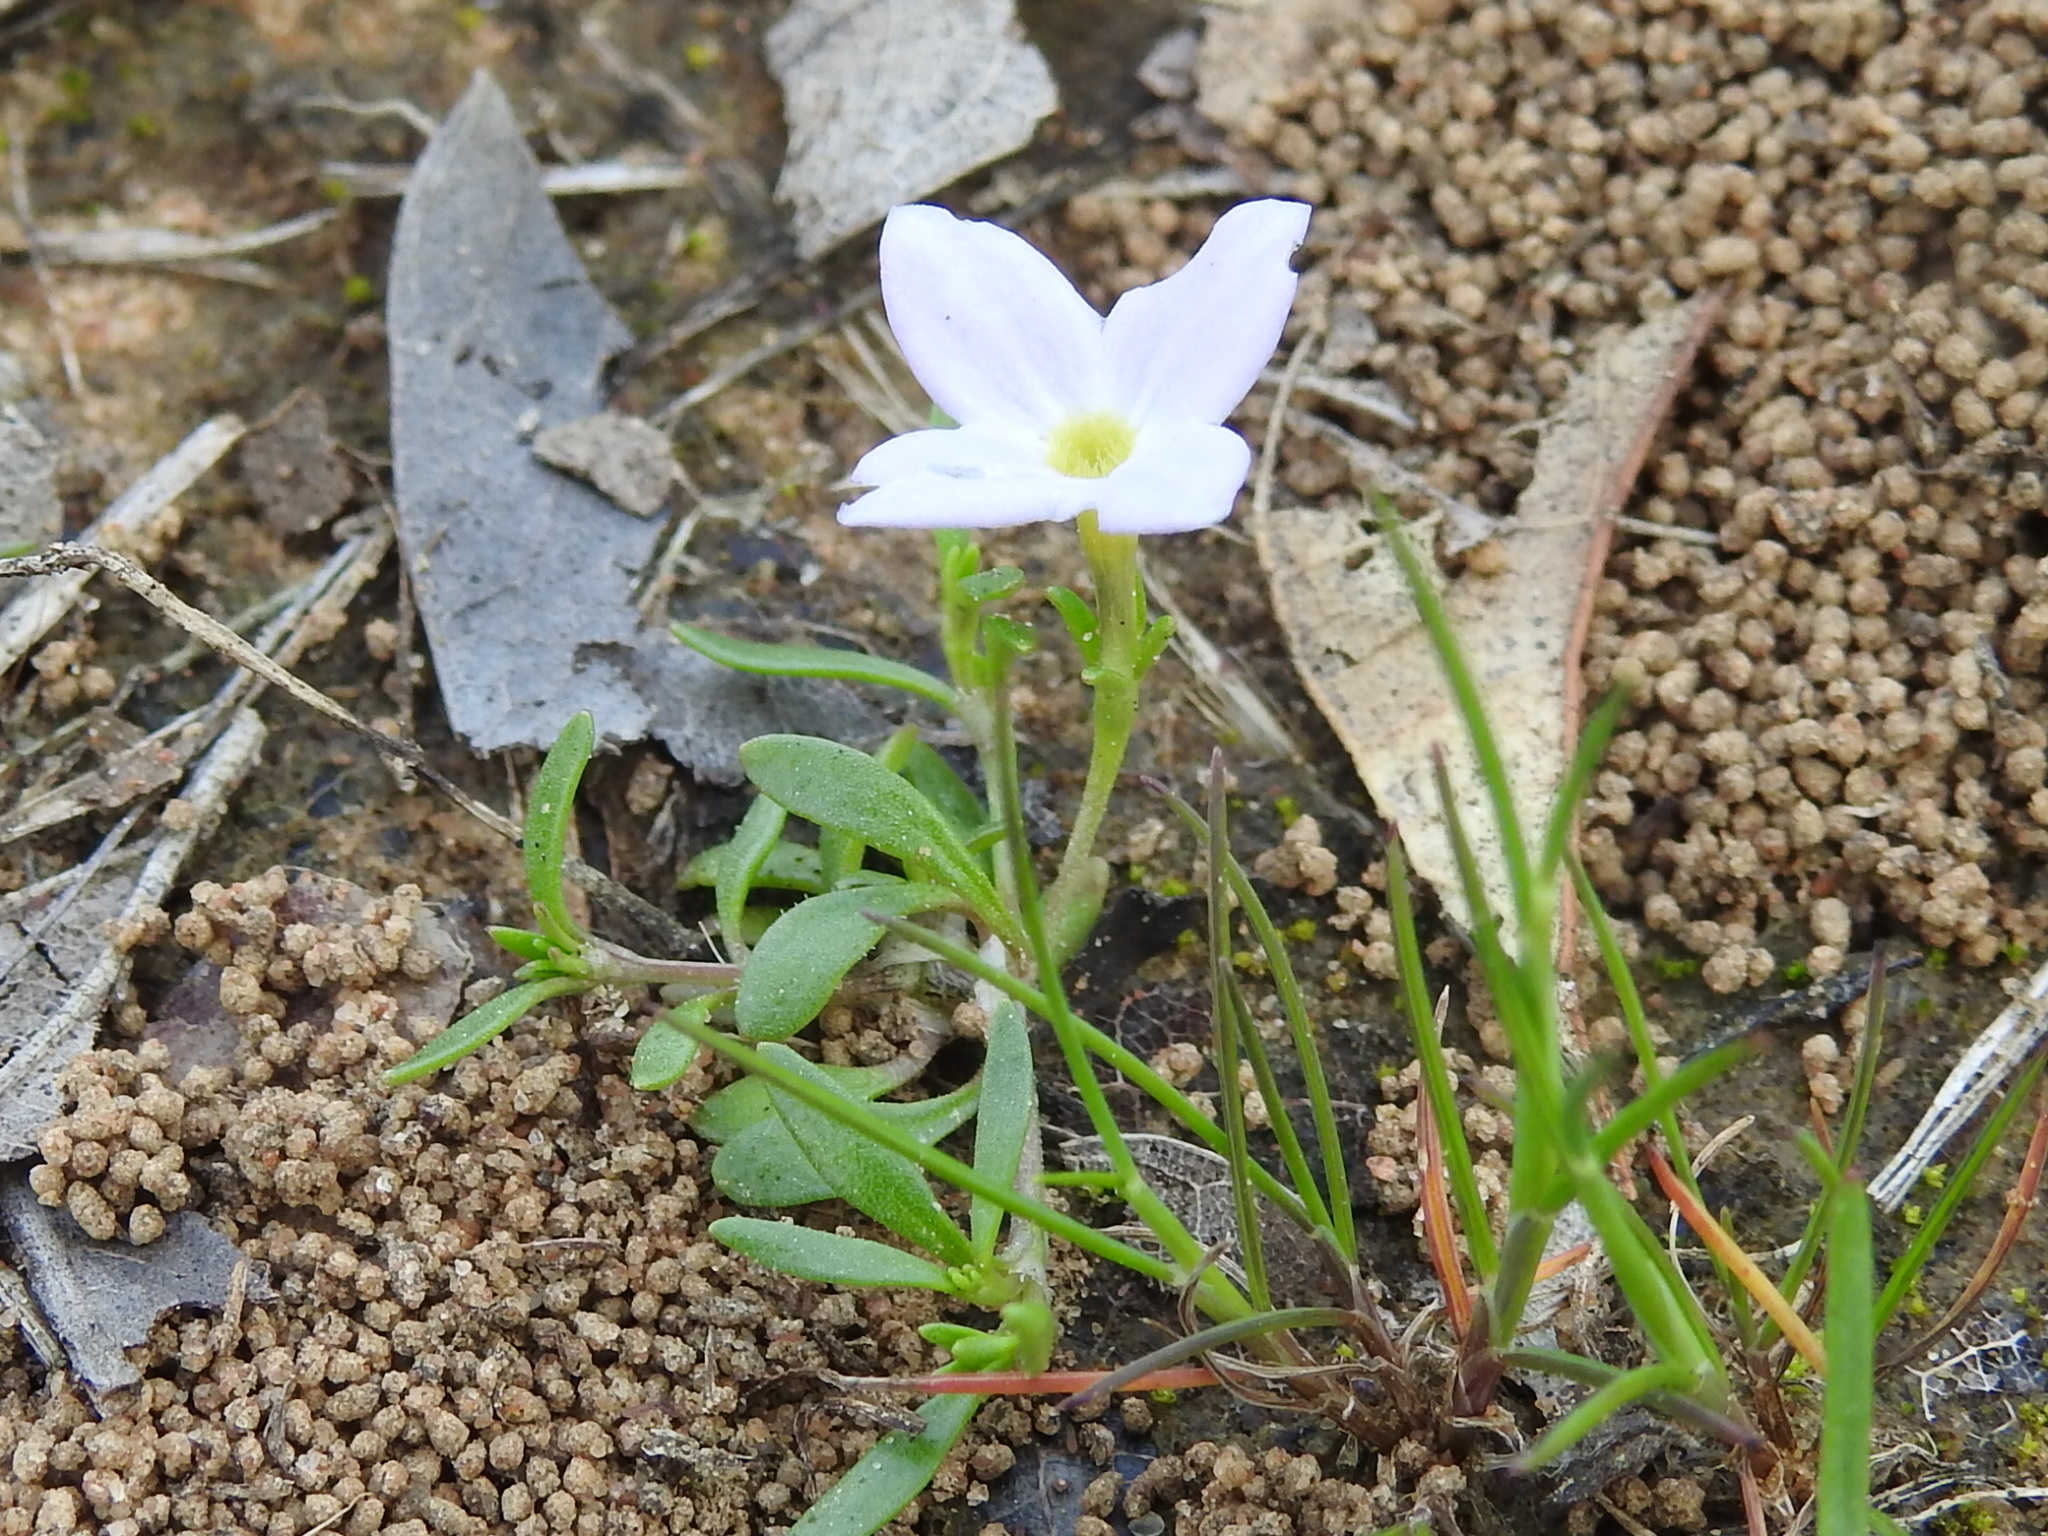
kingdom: Plantae
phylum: Tracheophyta
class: Magnoliopsida
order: Gentianales
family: Rubiaceae
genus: Houstonia
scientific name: Houstonia rosea
